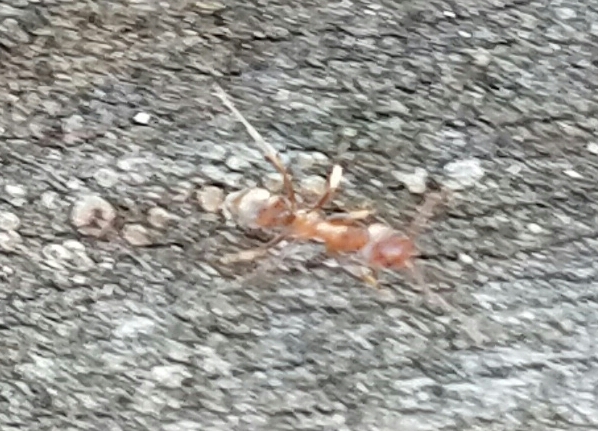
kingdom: Animalia
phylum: Arthropoda
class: Insecta
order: Hymenoptera
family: Formicidae
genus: Linepithema
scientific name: Linepithema humile
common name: Argentine ant
